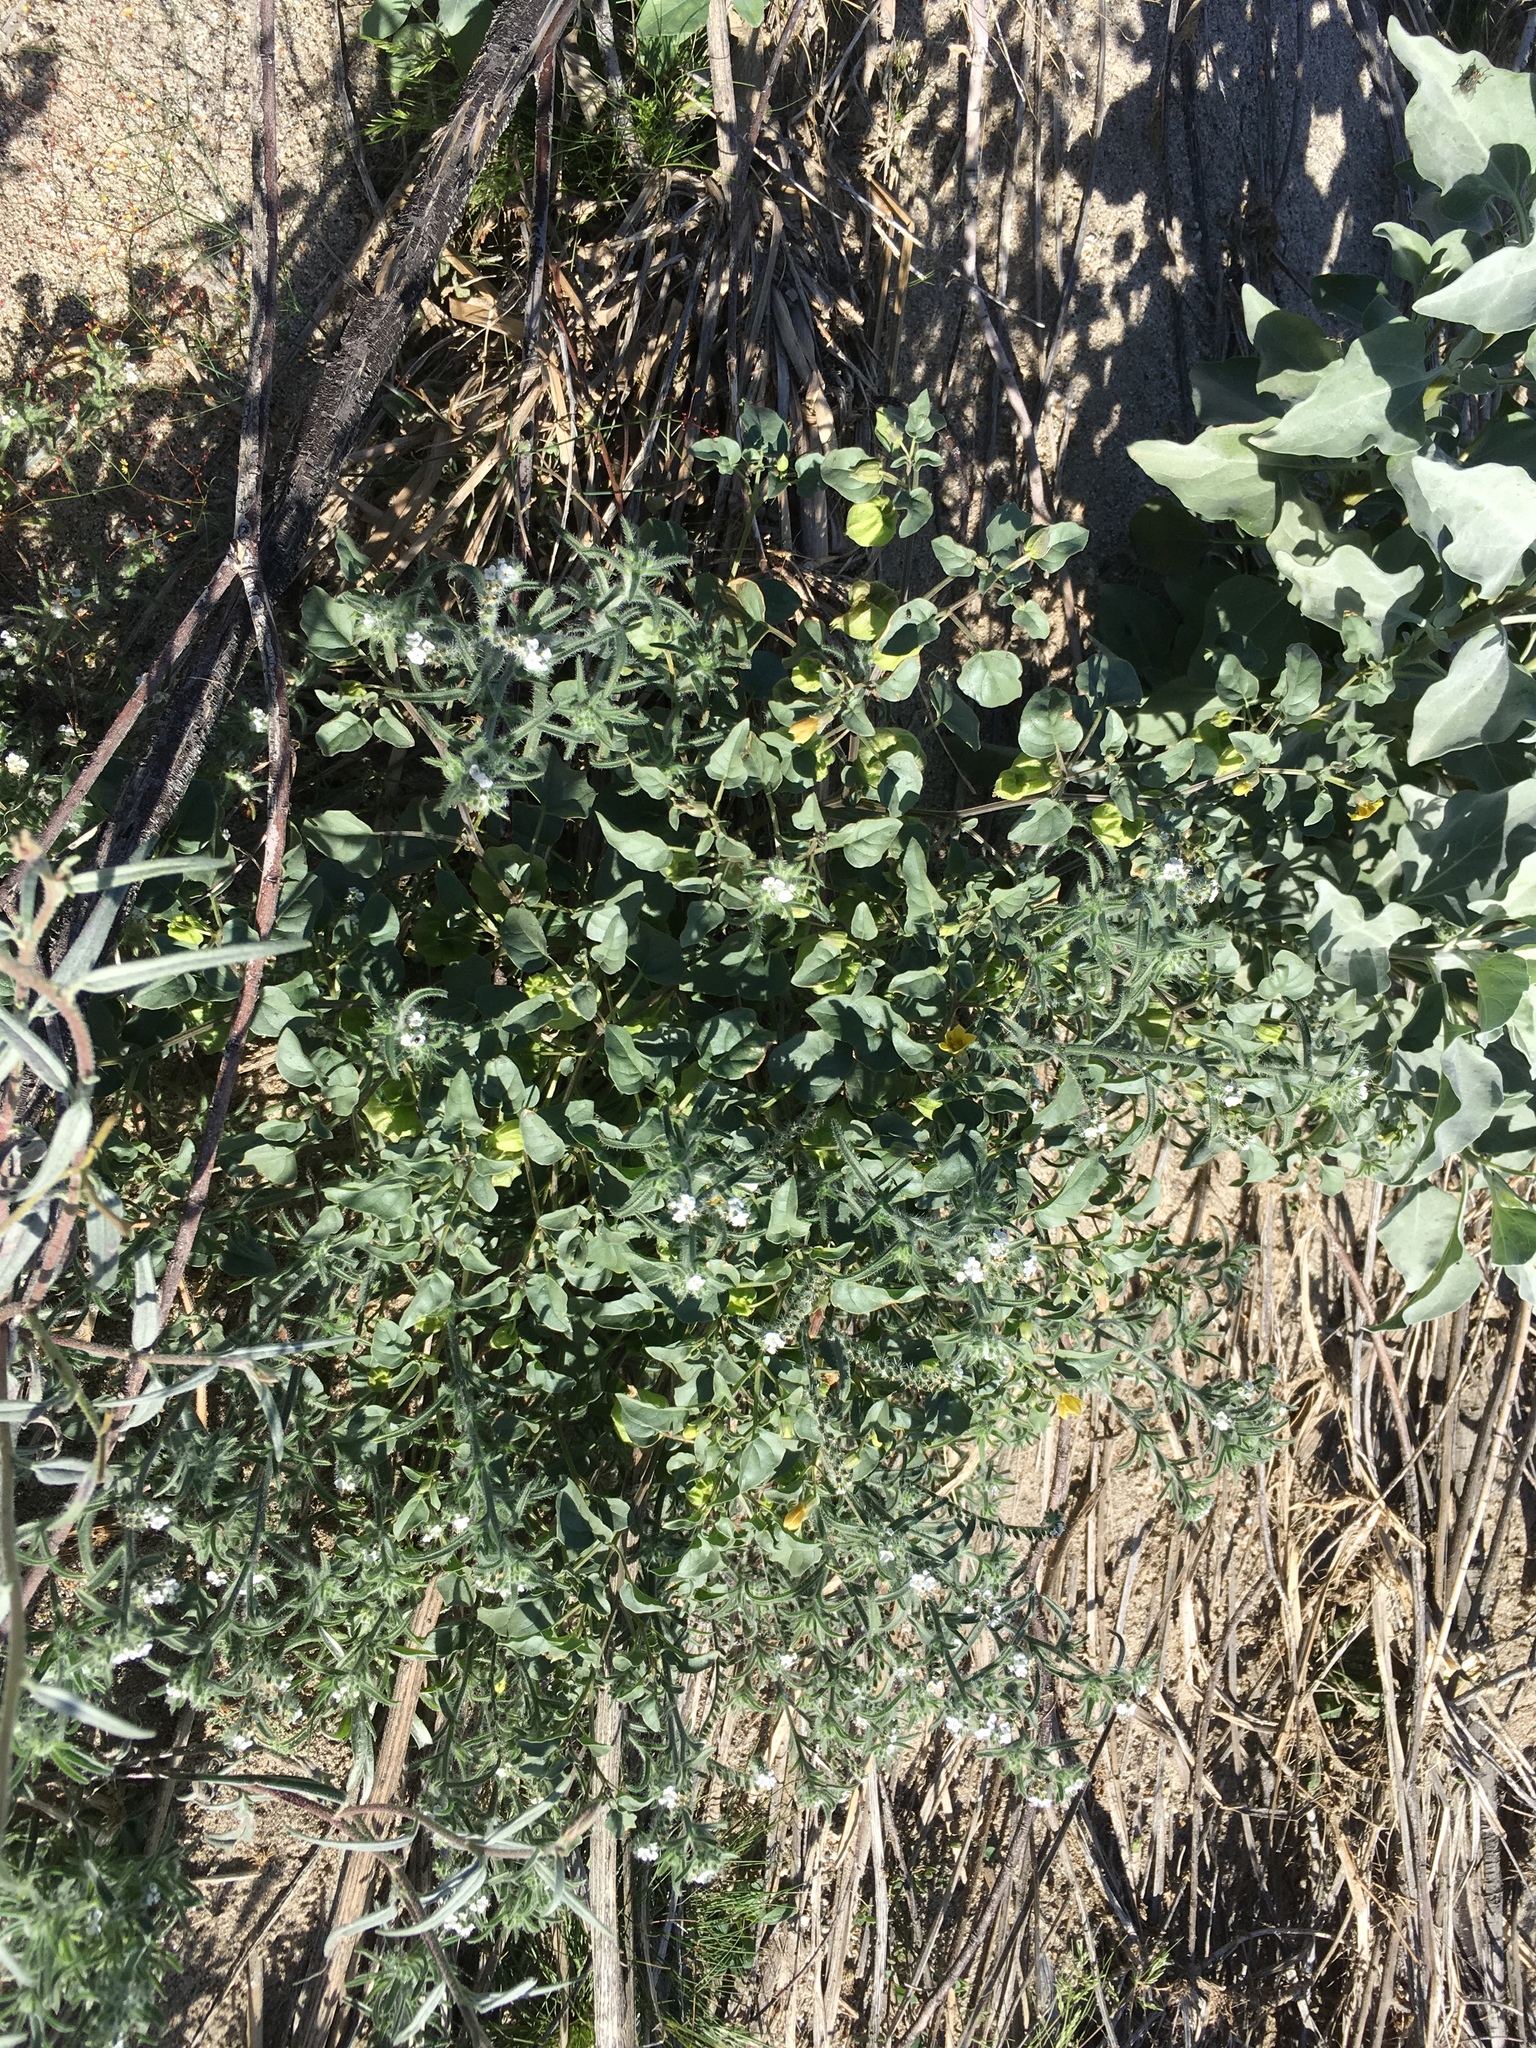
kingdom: Plantae
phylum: Tracheophyta
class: Magnoliopsida
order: Solanales
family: Solanaceae
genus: Physalis
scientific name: Physalis crassifolia
